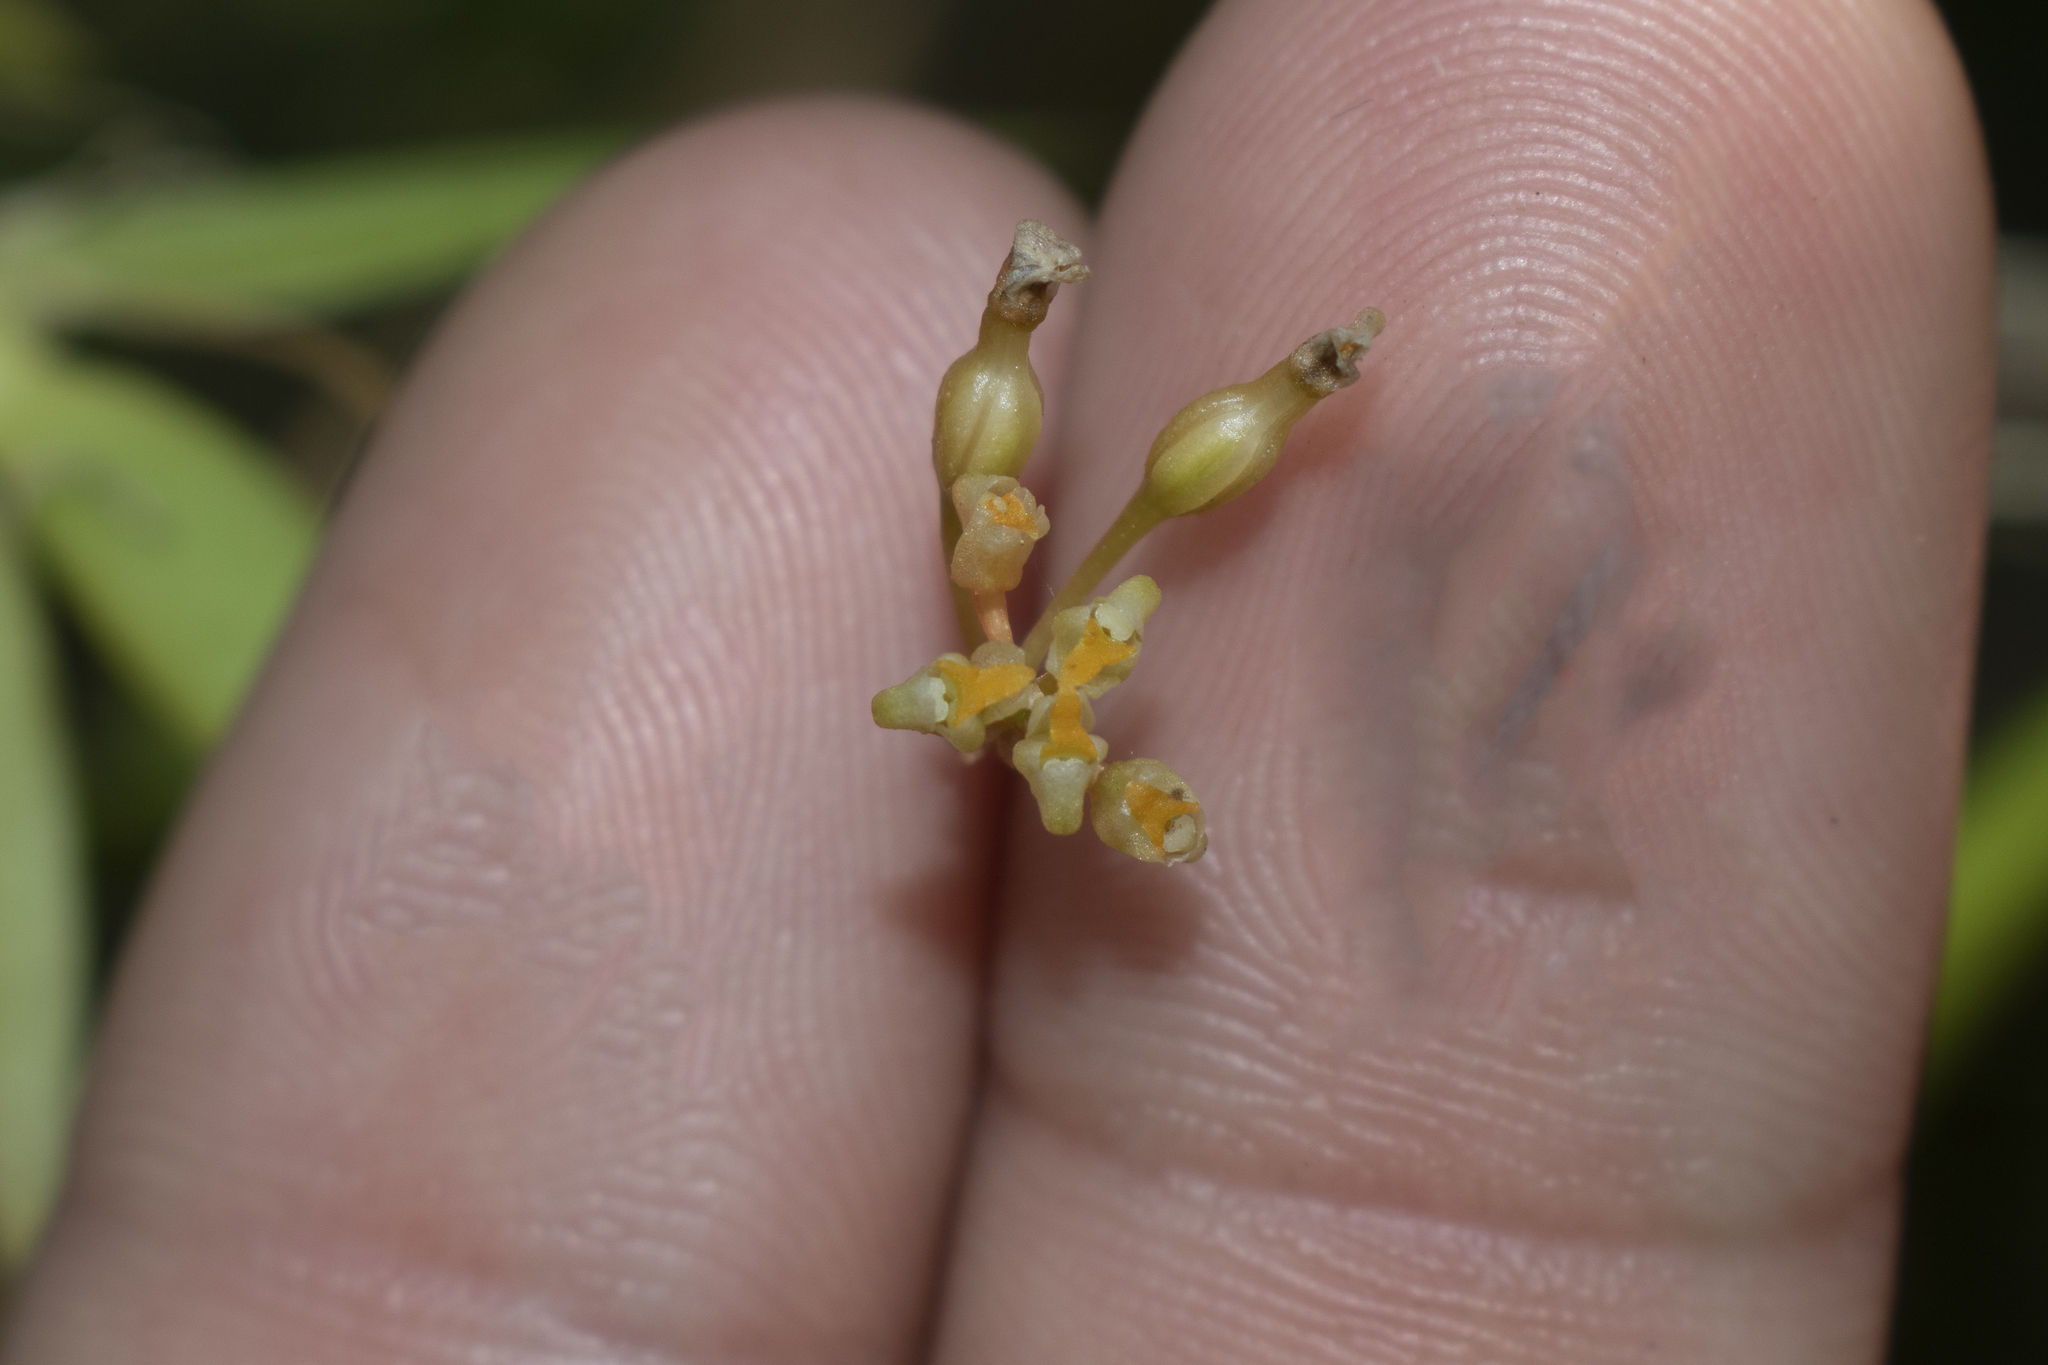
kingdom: Plantae
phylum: Tracheophyta
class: Liliopsida
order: Asparagales
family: Orchidaceae
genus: Trizeuxis
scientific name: Trizeuxis falcata
